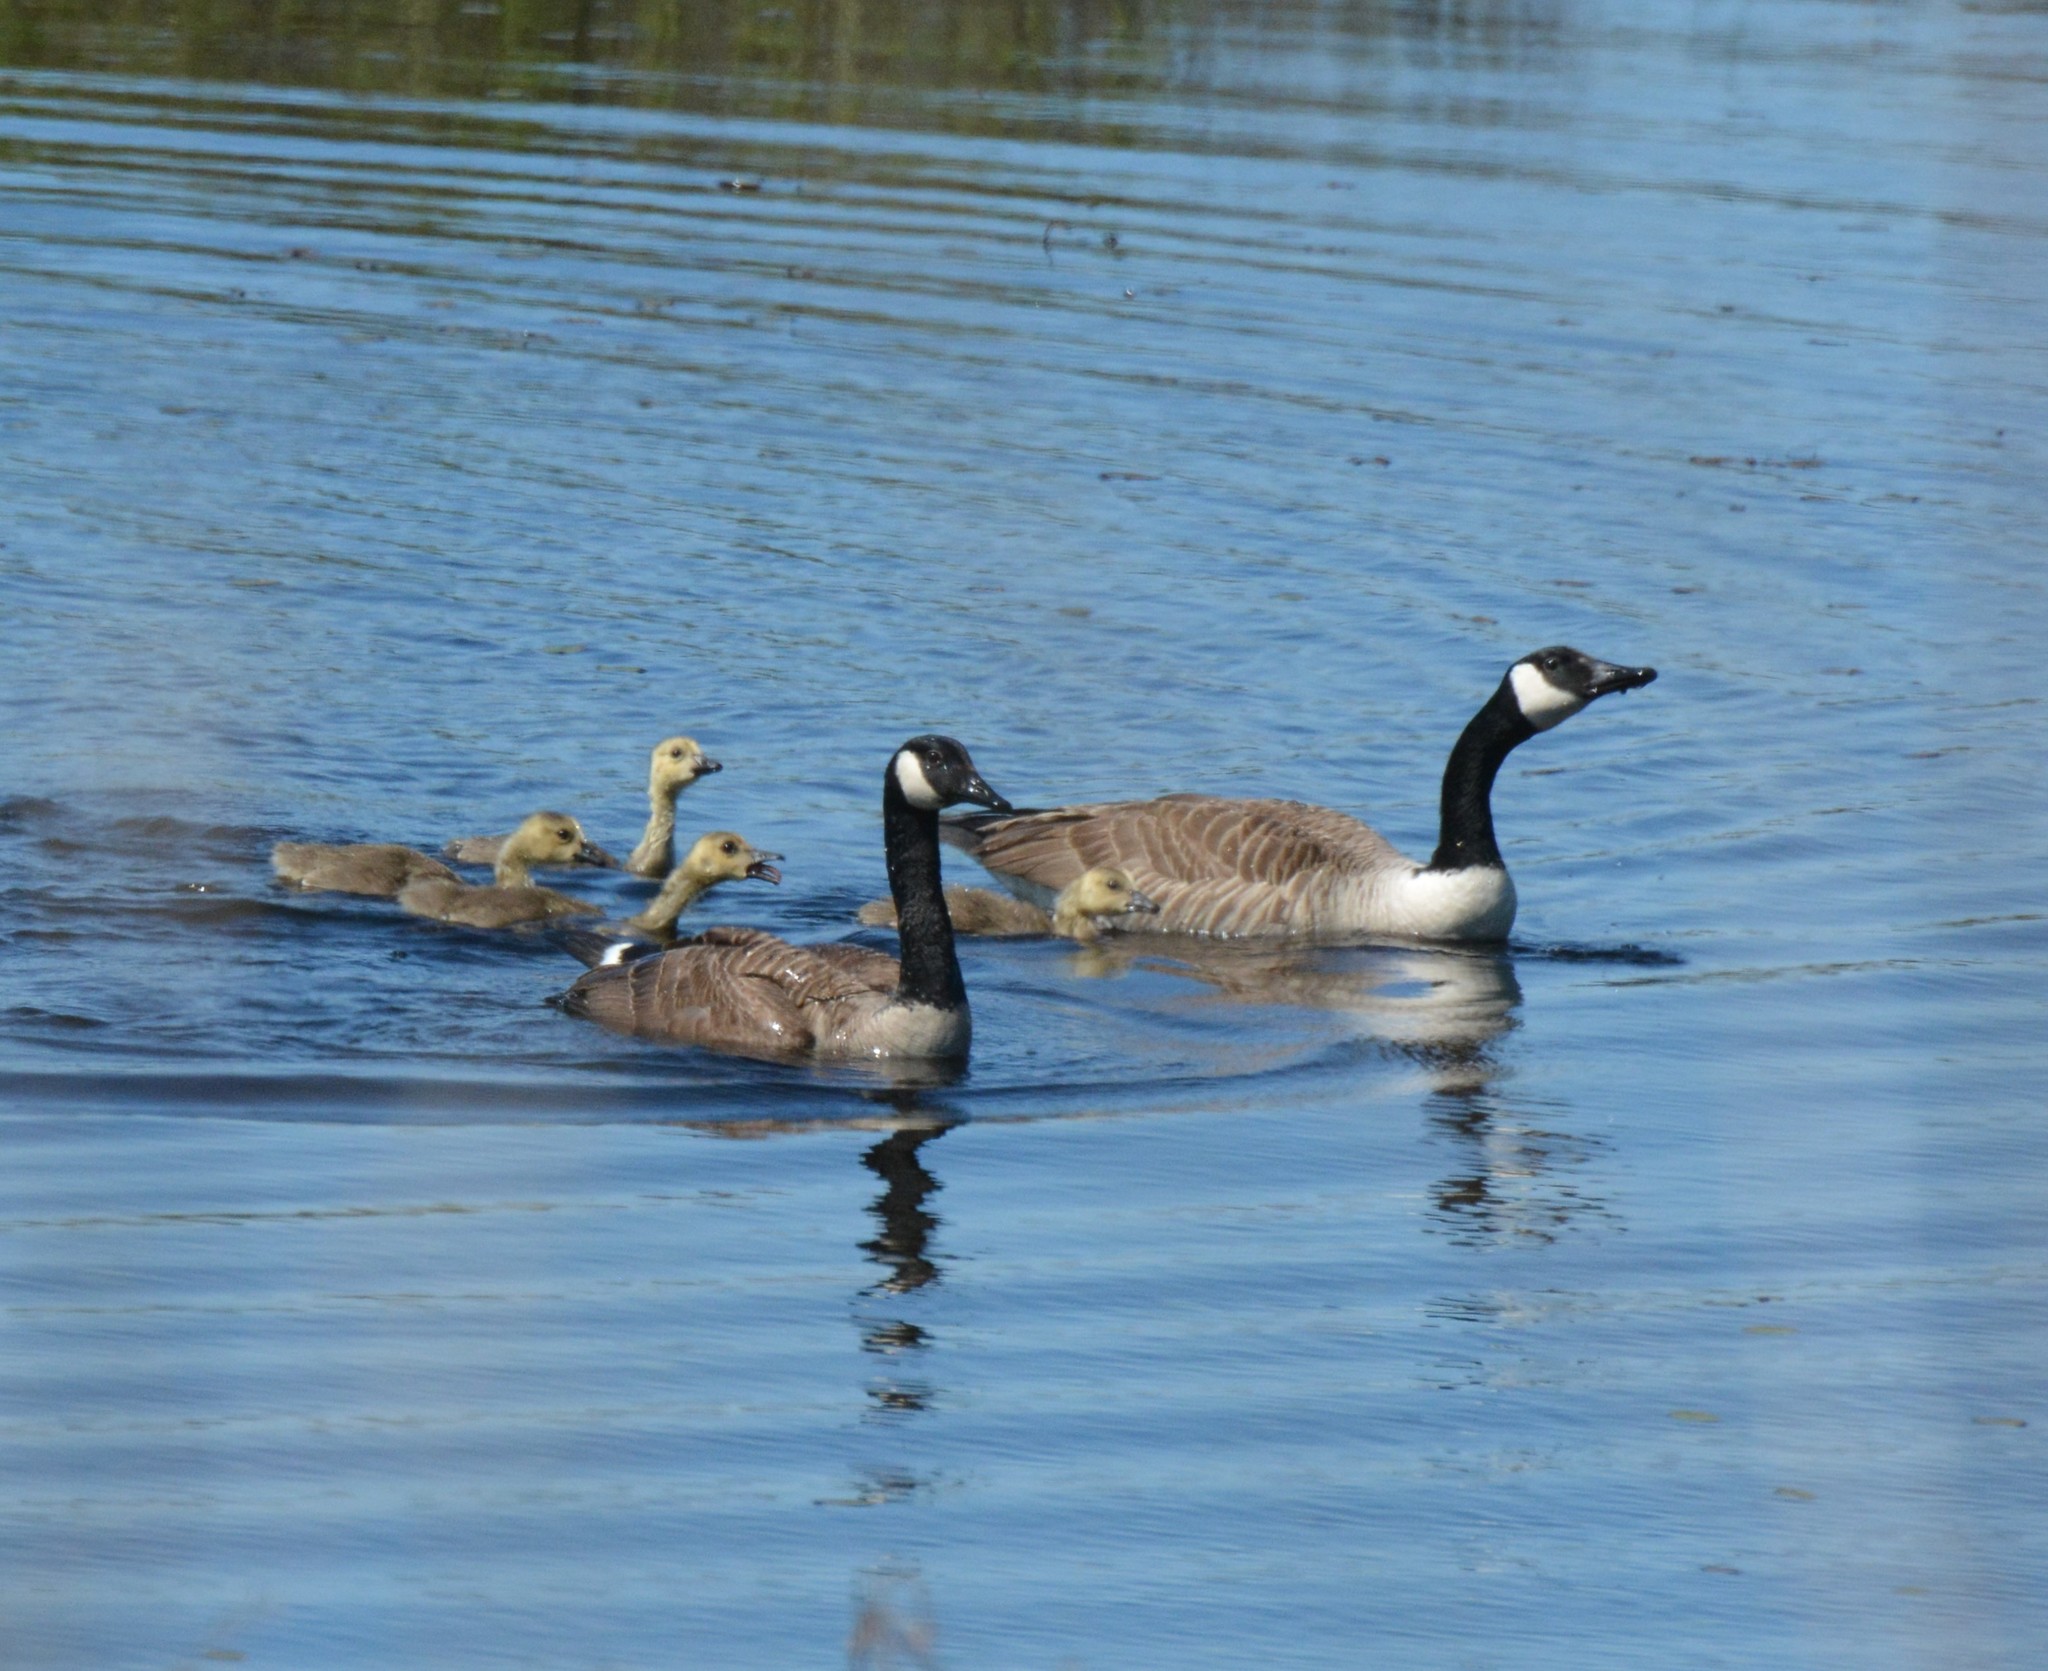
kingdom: Animalia
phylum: Chordata
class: Aves
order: Anseriformes
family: Anatidae
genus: Branta
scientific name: Branta canadensis
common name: Canada goose
